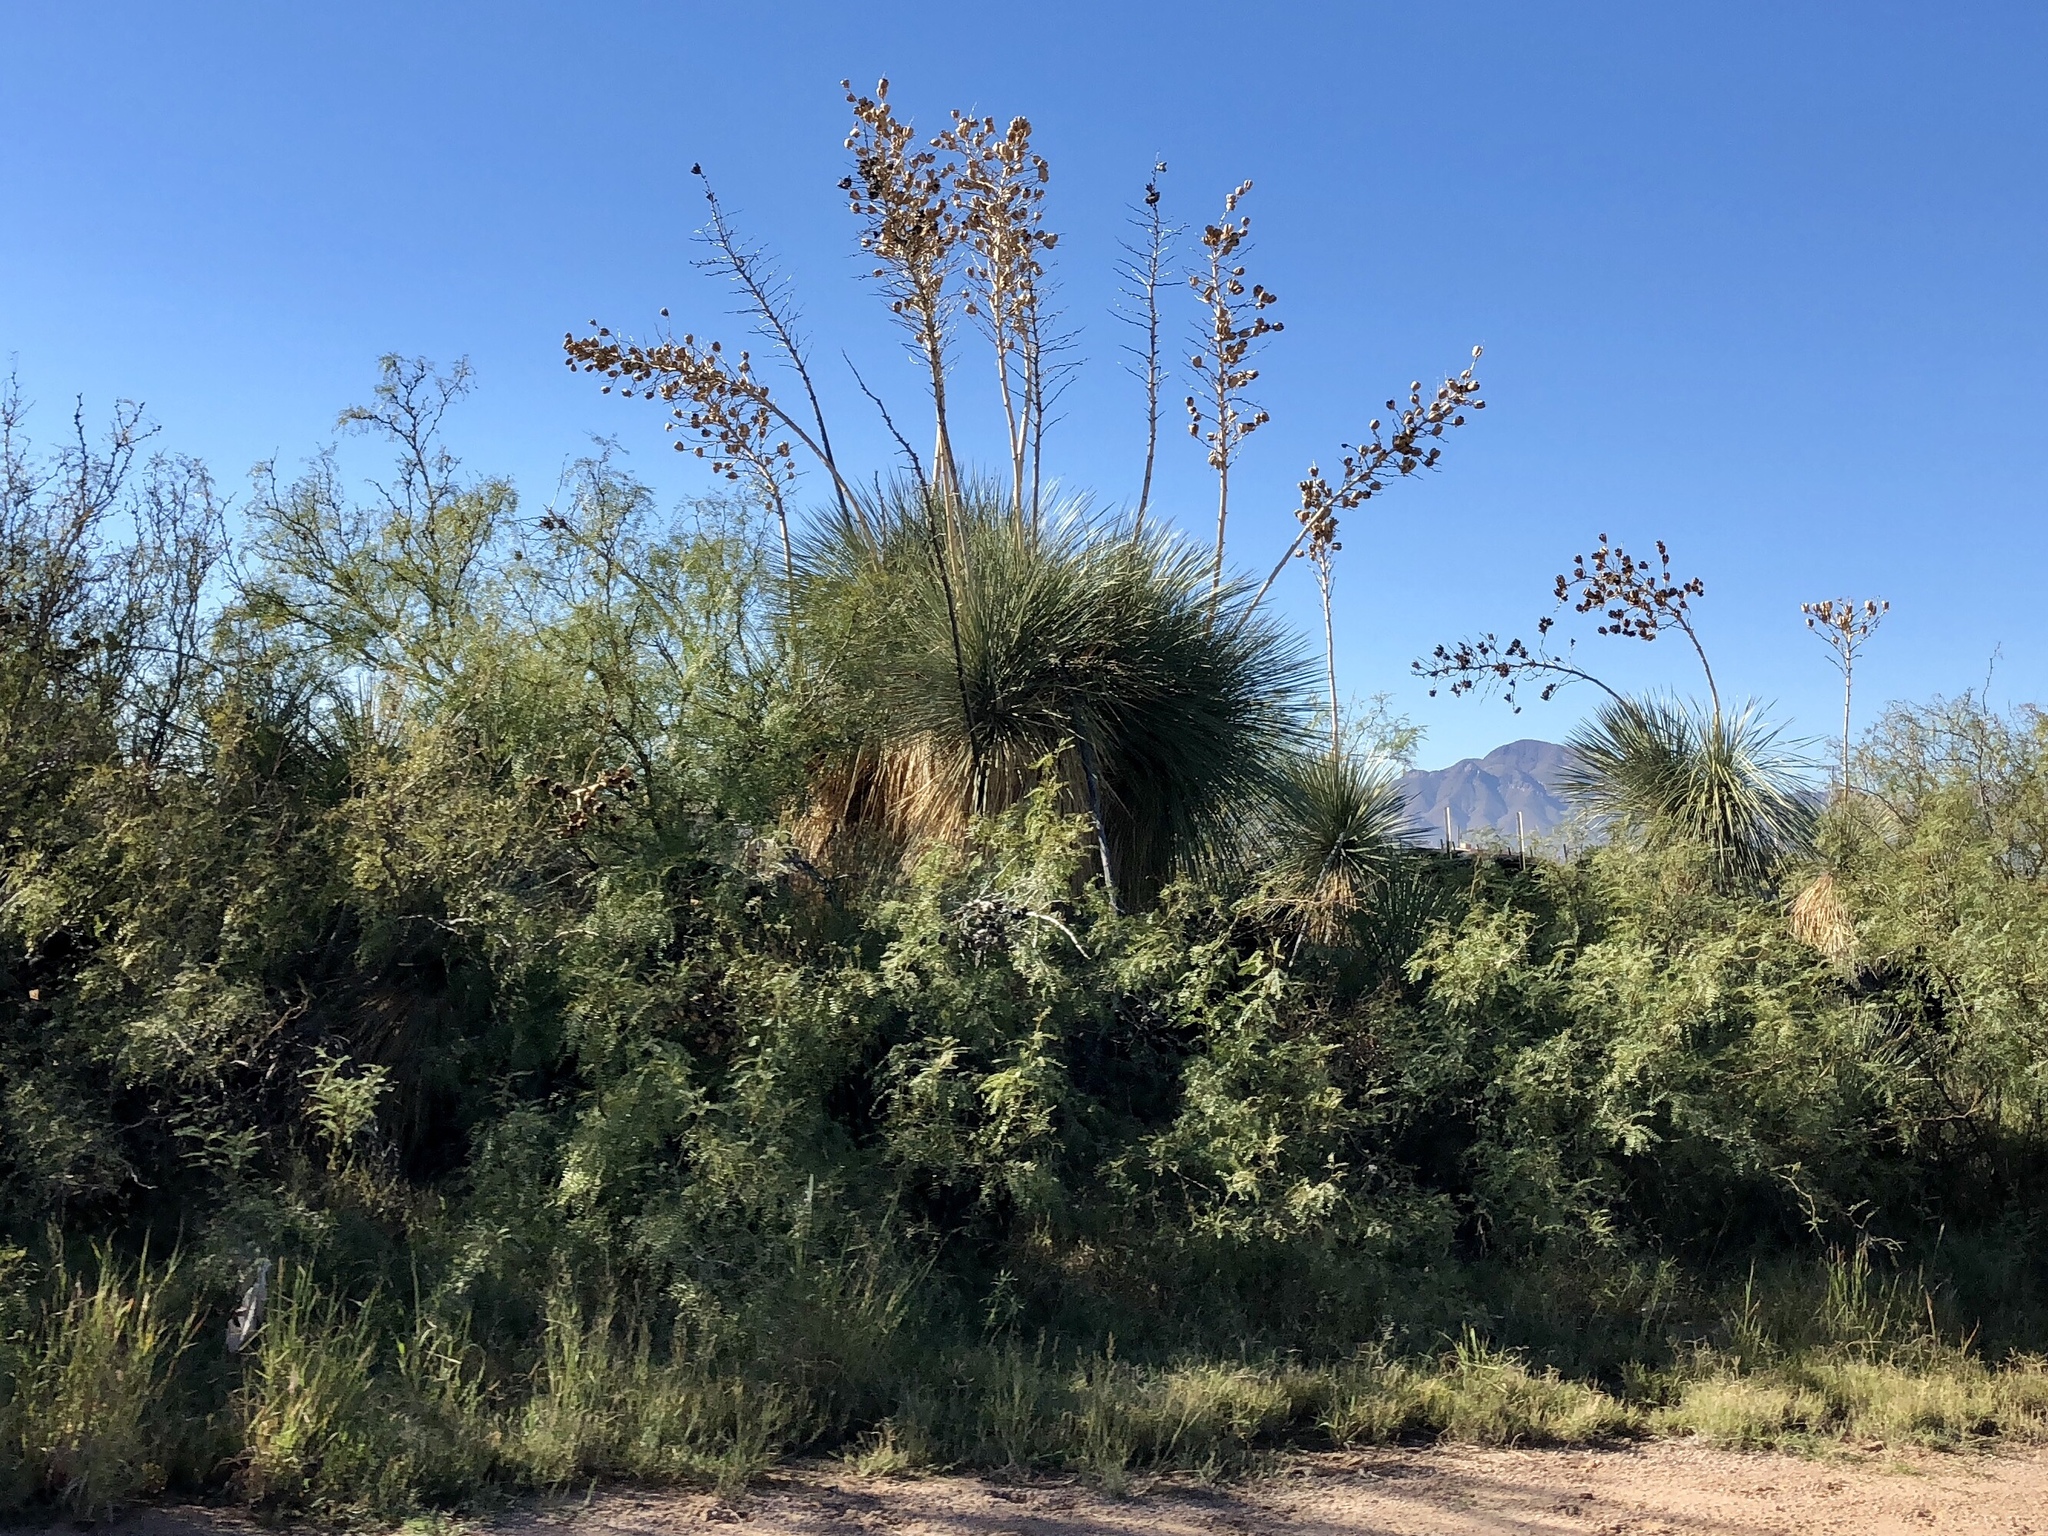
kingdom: Plantae
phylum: Tracheophyta
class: Liliopsida
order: Asparagales
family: Asparagaceae
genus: Yucca
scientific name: Yucca elata
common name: Palmella
